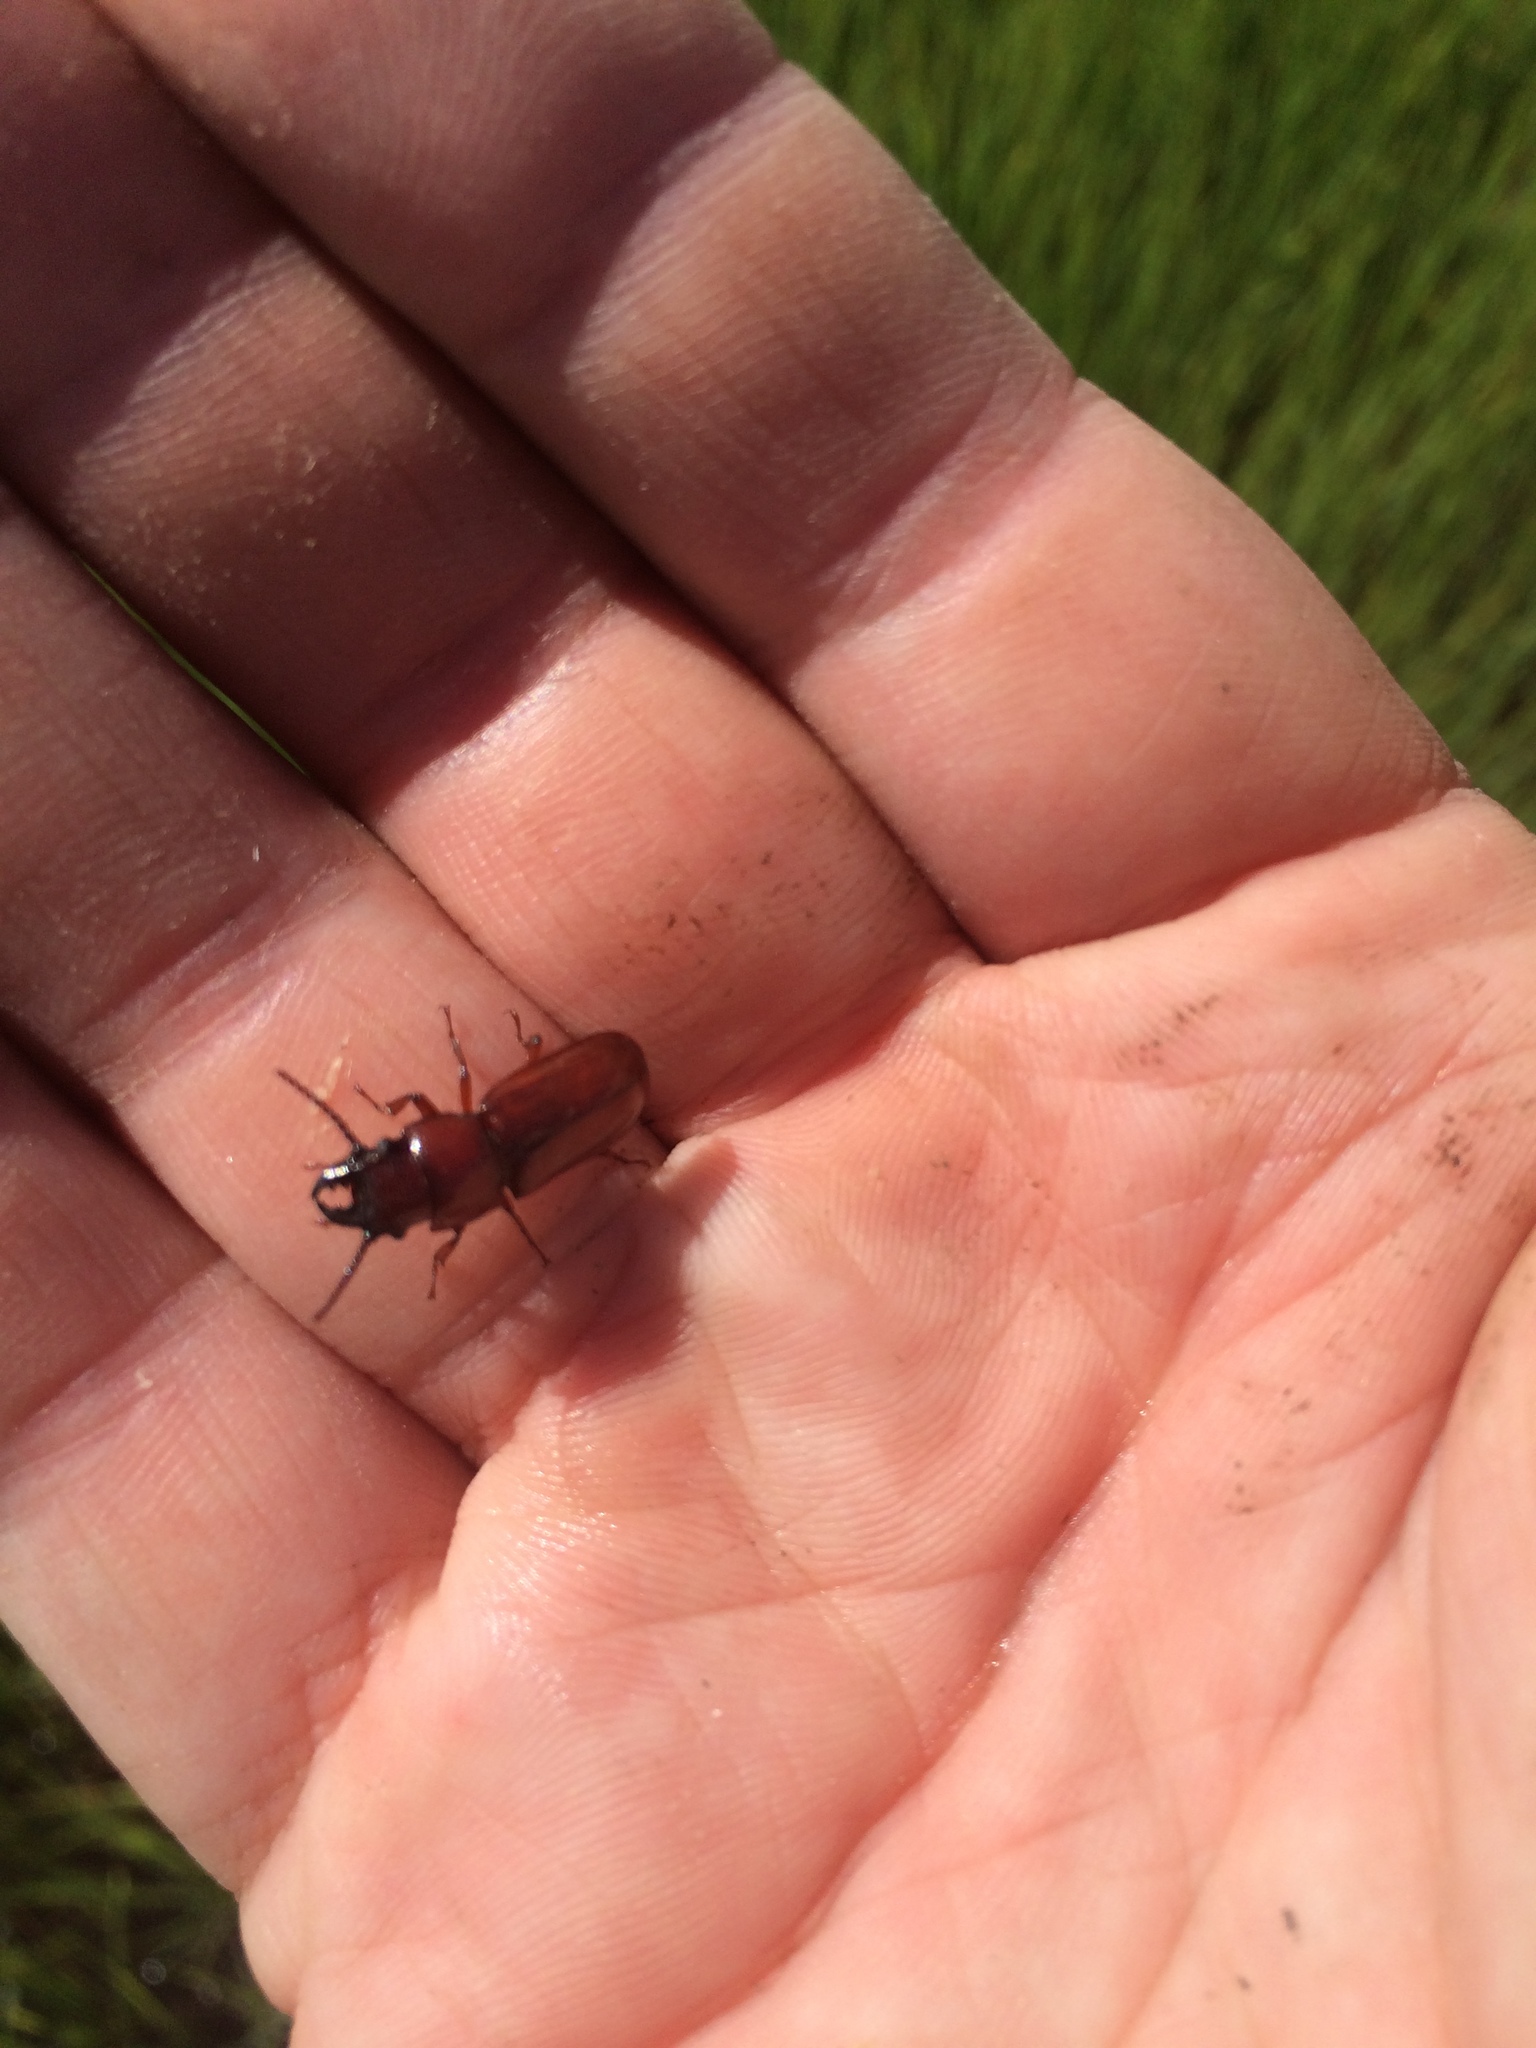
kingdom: Animalia
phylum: Arthropoda
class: Insecta
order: Coleoptera
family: Cerambycidae
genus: Neandra
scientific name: Neandra brunnea
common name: Pole borer
